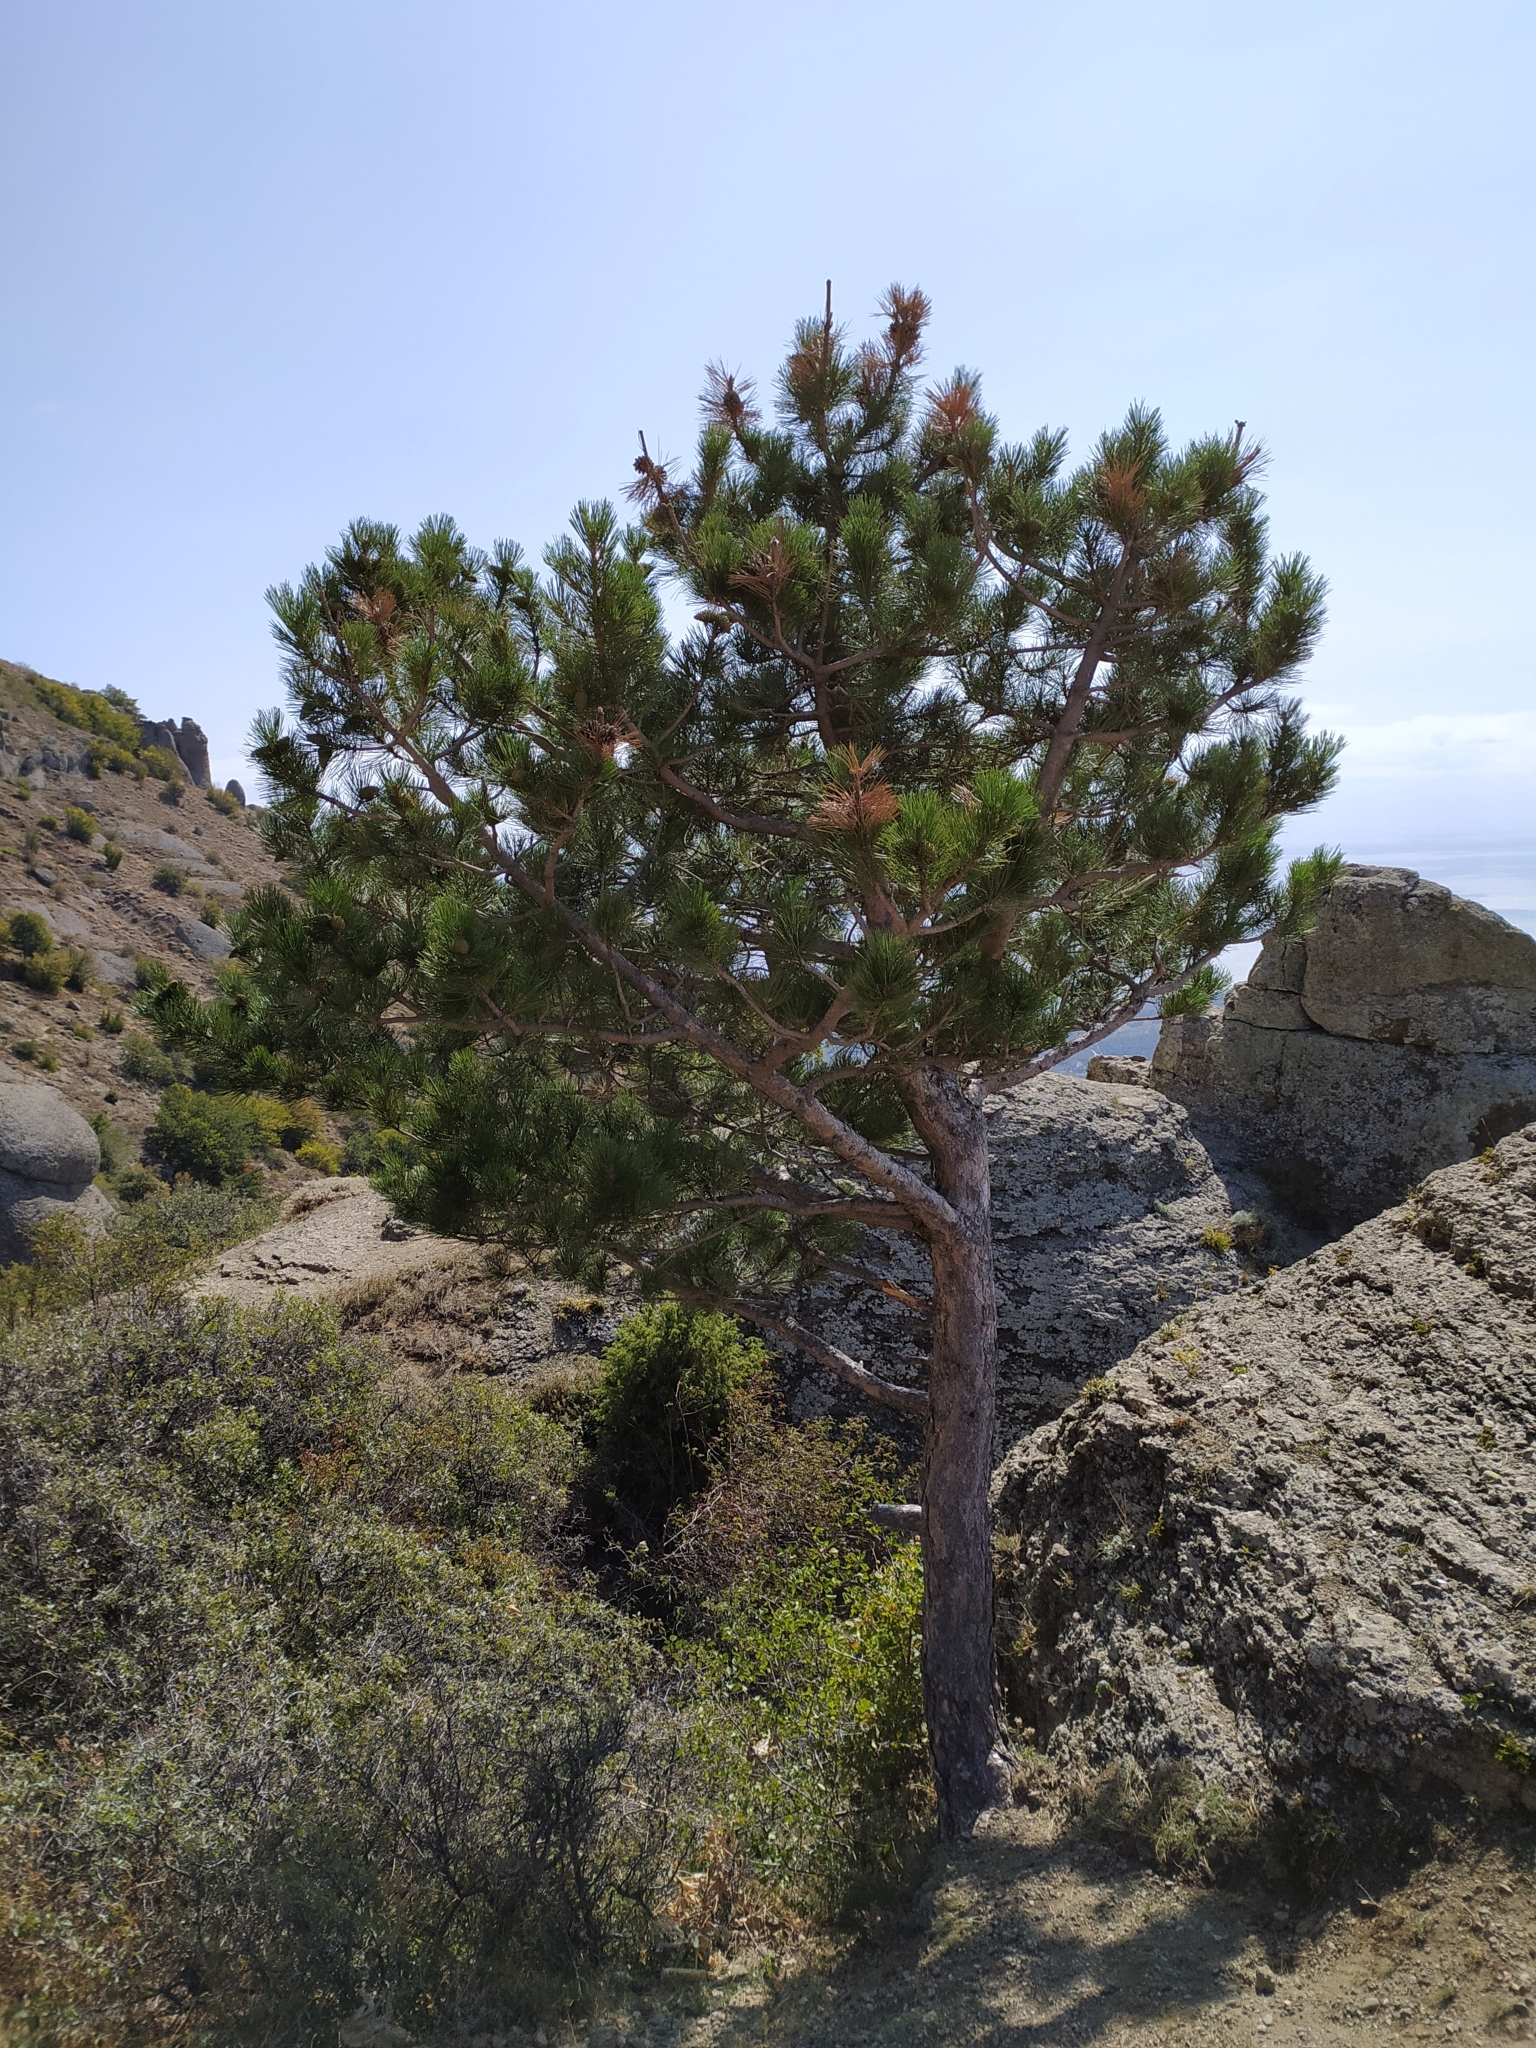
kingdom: Plantae
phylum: Tracheophyta
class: Pinopsida
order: Pinales
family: Pinaceae
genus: Pinus
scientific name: Pinus nigra
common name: Austrian pine
